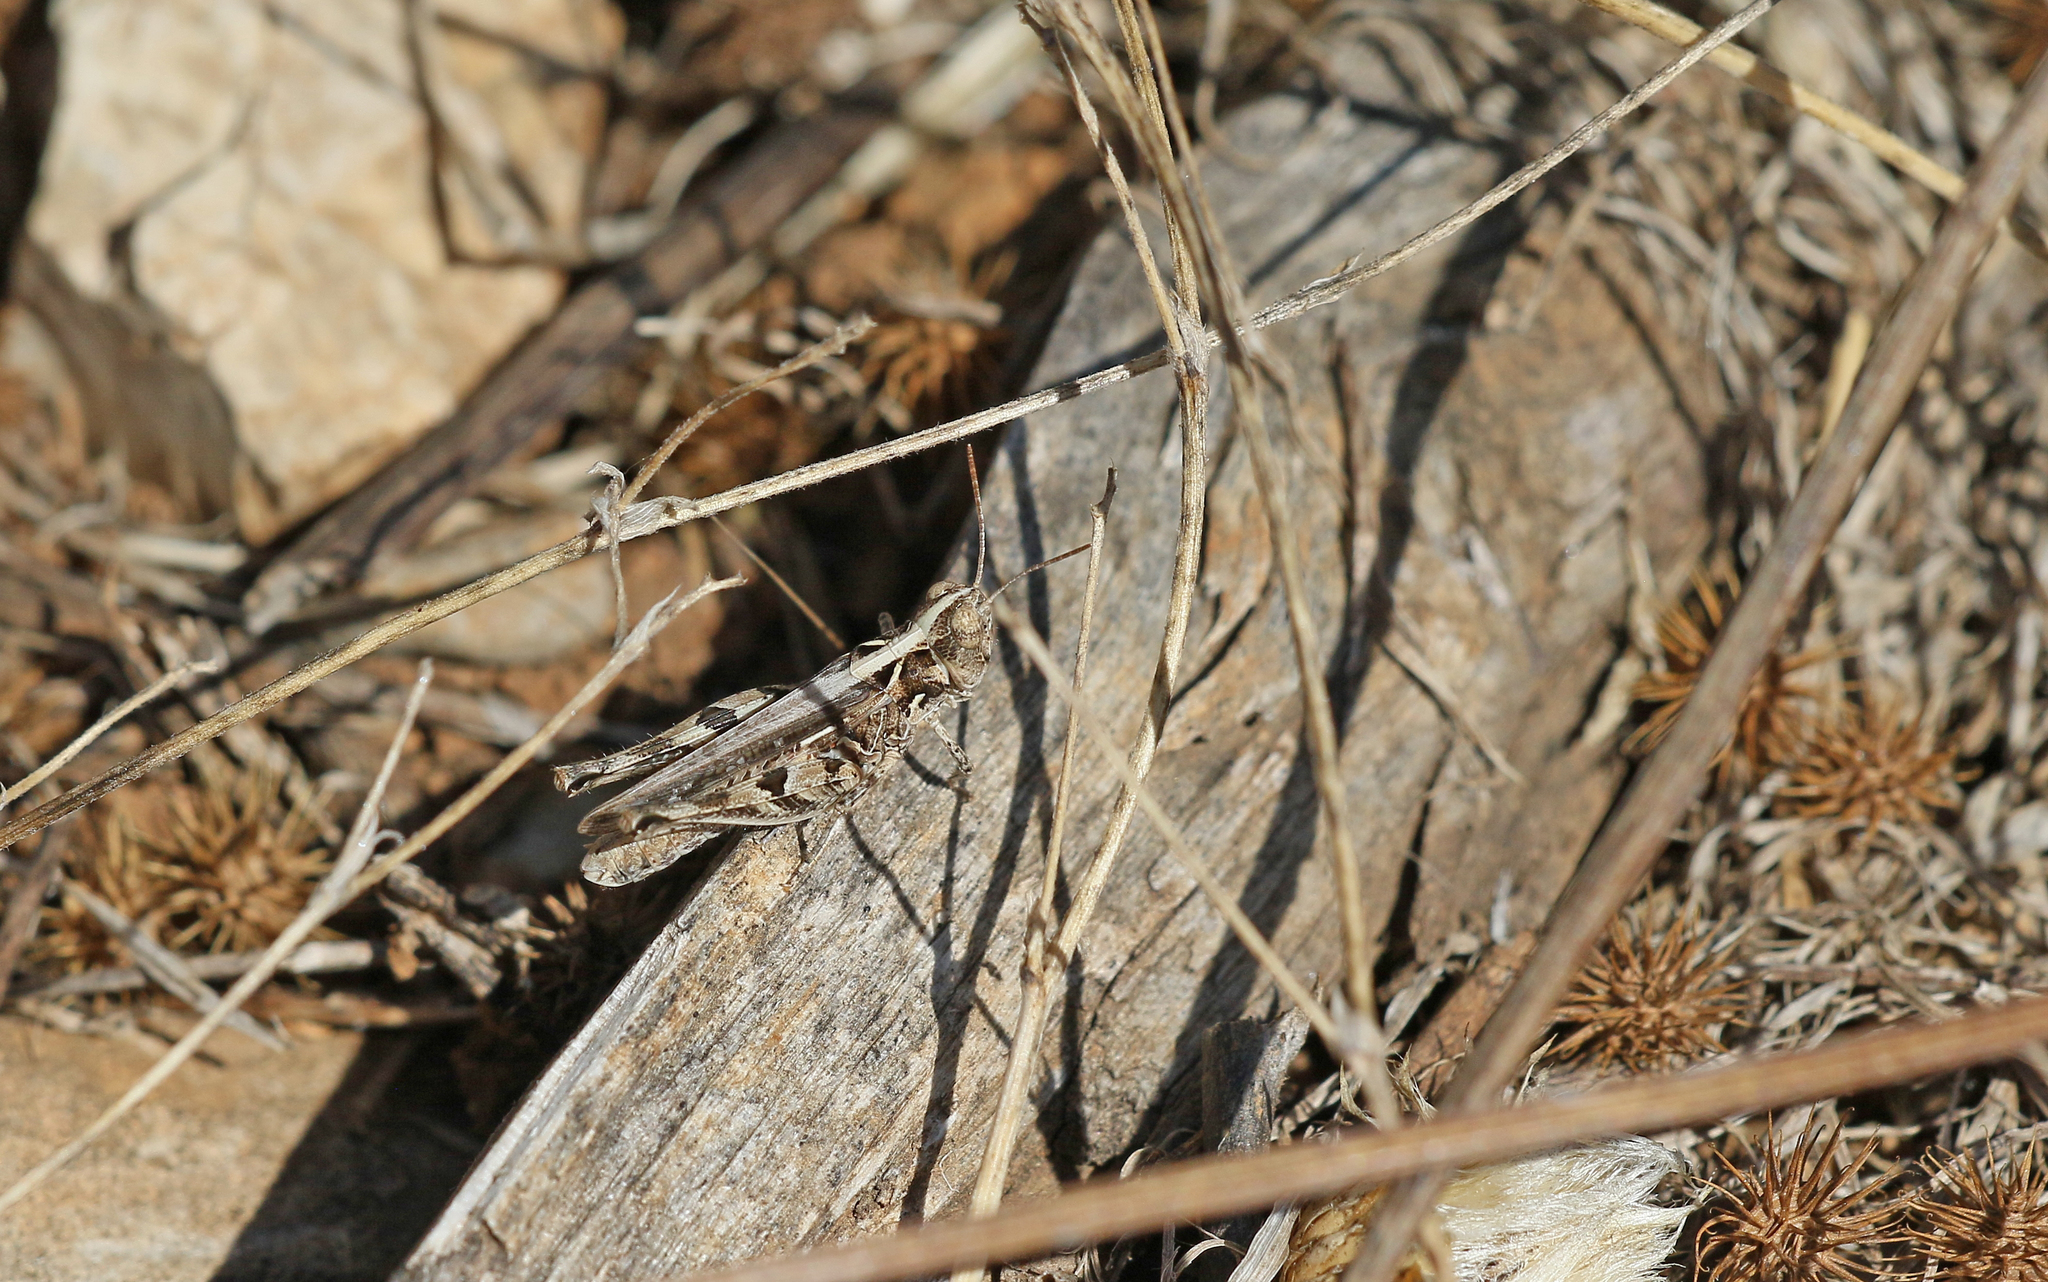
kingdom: Animalia
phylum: Arthropoda
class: Insecta
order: Orthoptera
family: Acrididae
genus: Dociostaurus
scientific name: Dociostaurus jagoi
